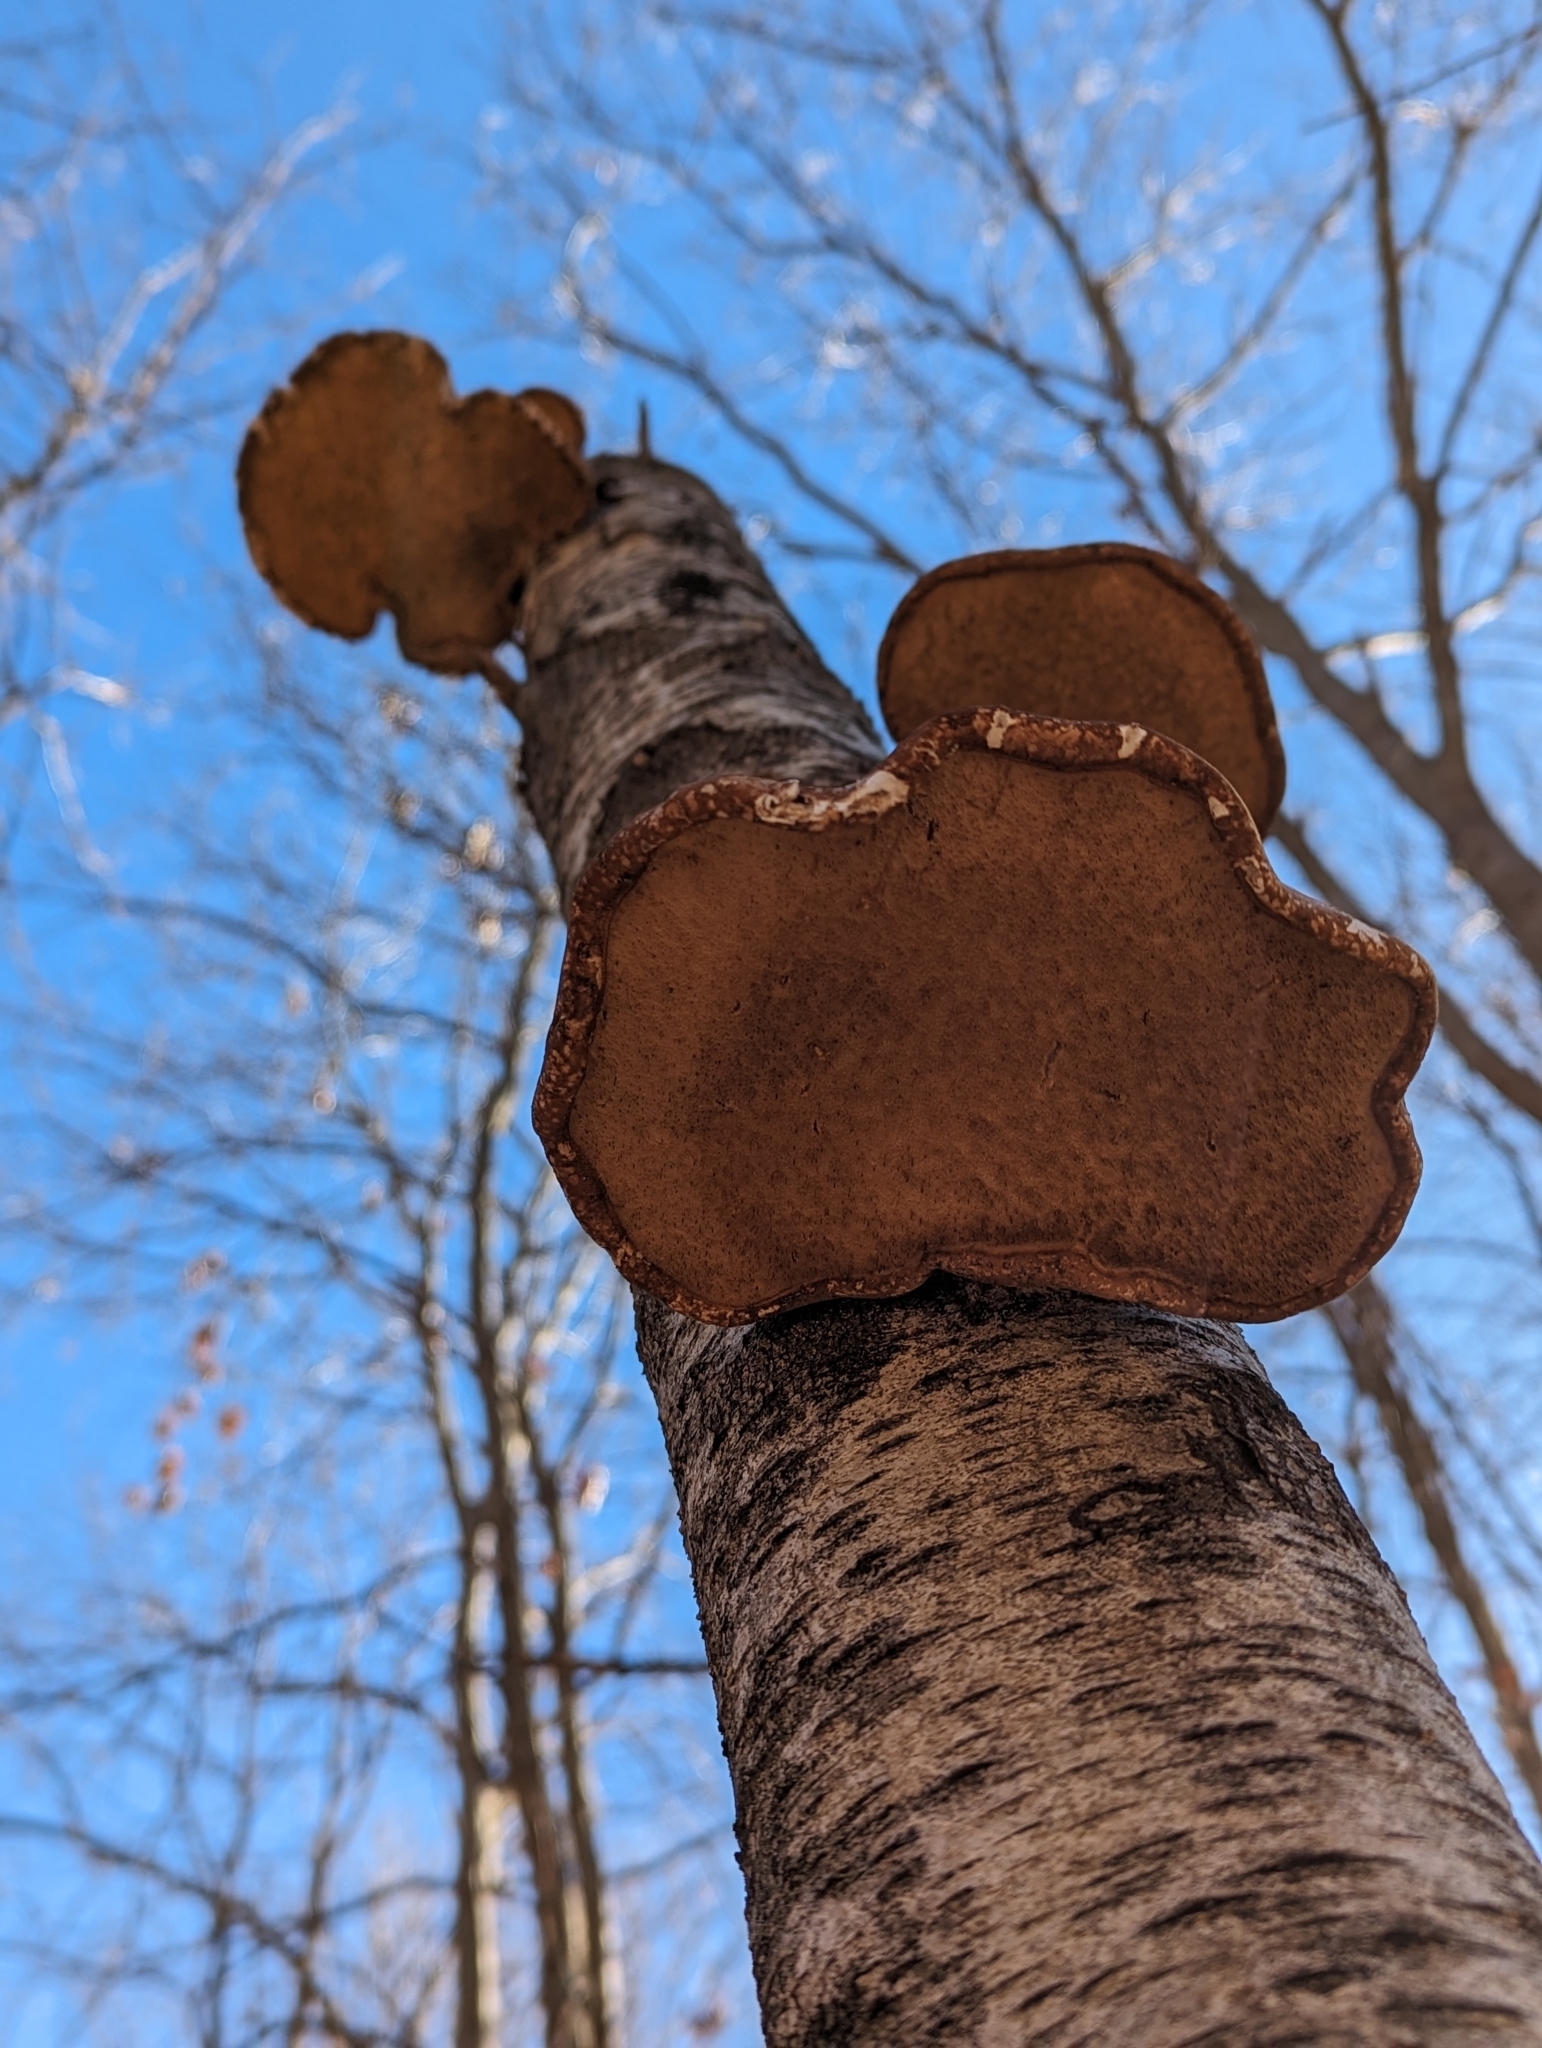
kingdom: Fungi
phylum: Basidiomycota
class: Agaricomycetes
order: Polyporales
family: Fomitopsidaceae
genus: Fomitopsis
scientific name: Fomitopsis betulina
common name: Birch polypore
